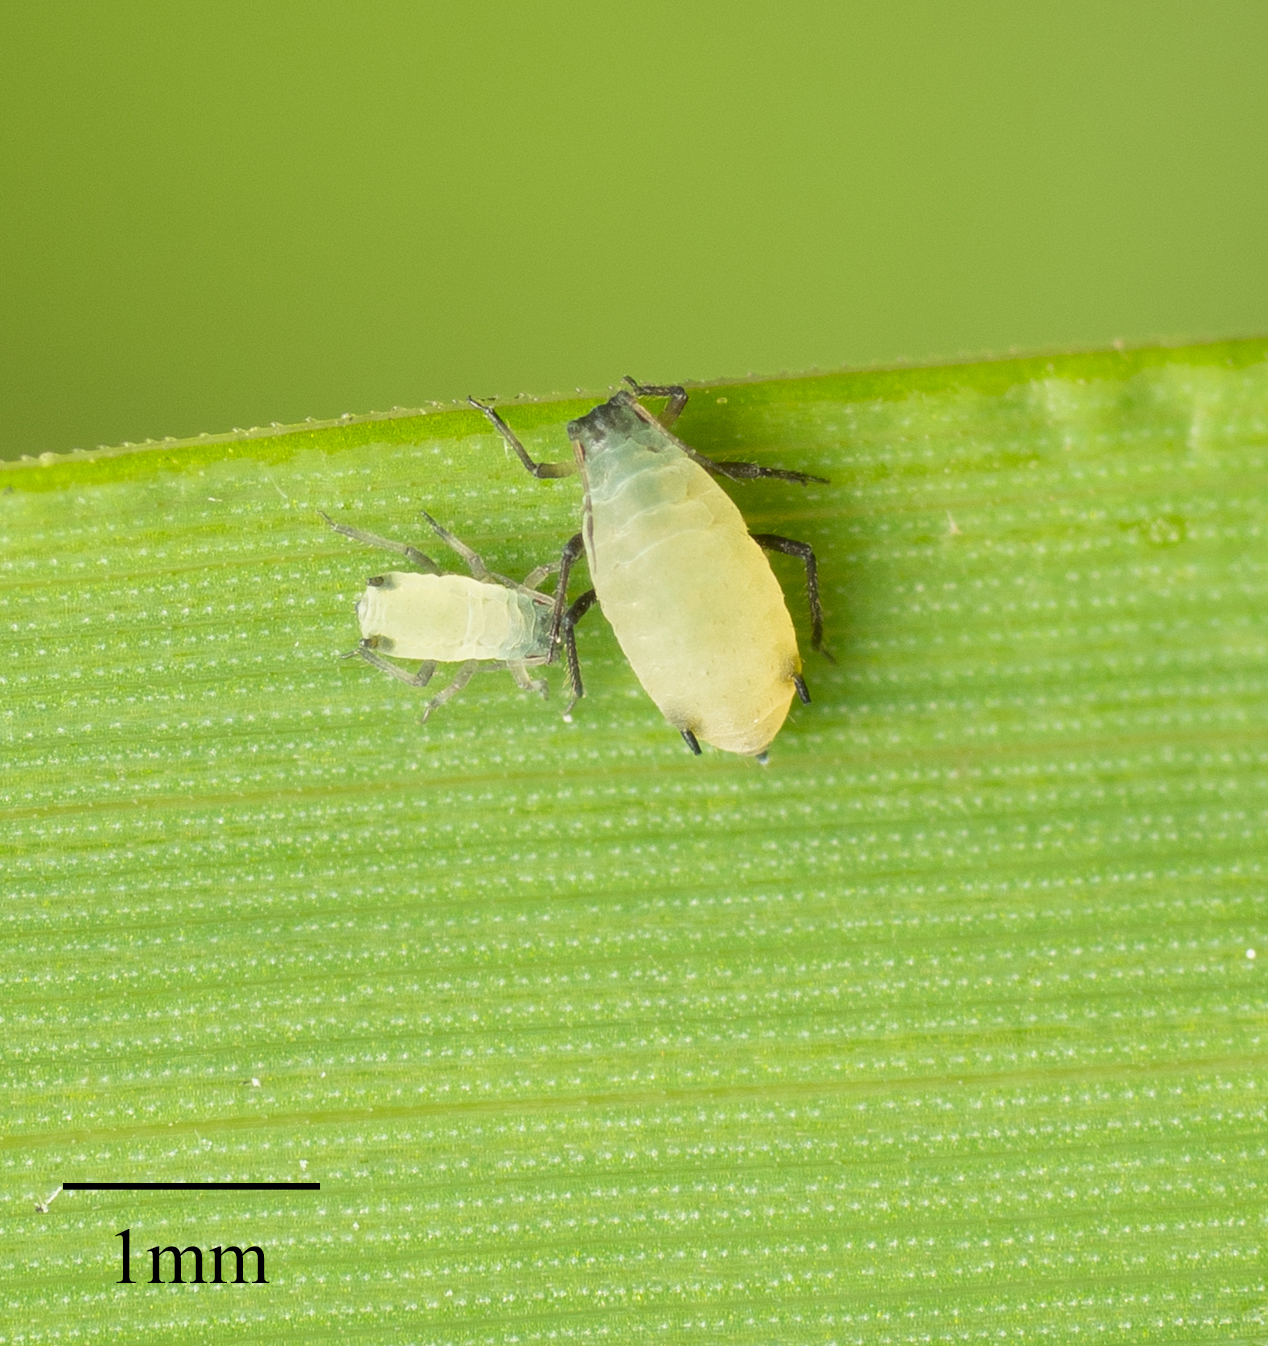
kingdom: Animalia
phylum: Arthropoda
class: Insecta
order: Hemiptera
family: Aphididae
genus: Rhopalosiphum
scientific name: Rhopalosiphum maidis
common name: Corn leaf aphid
